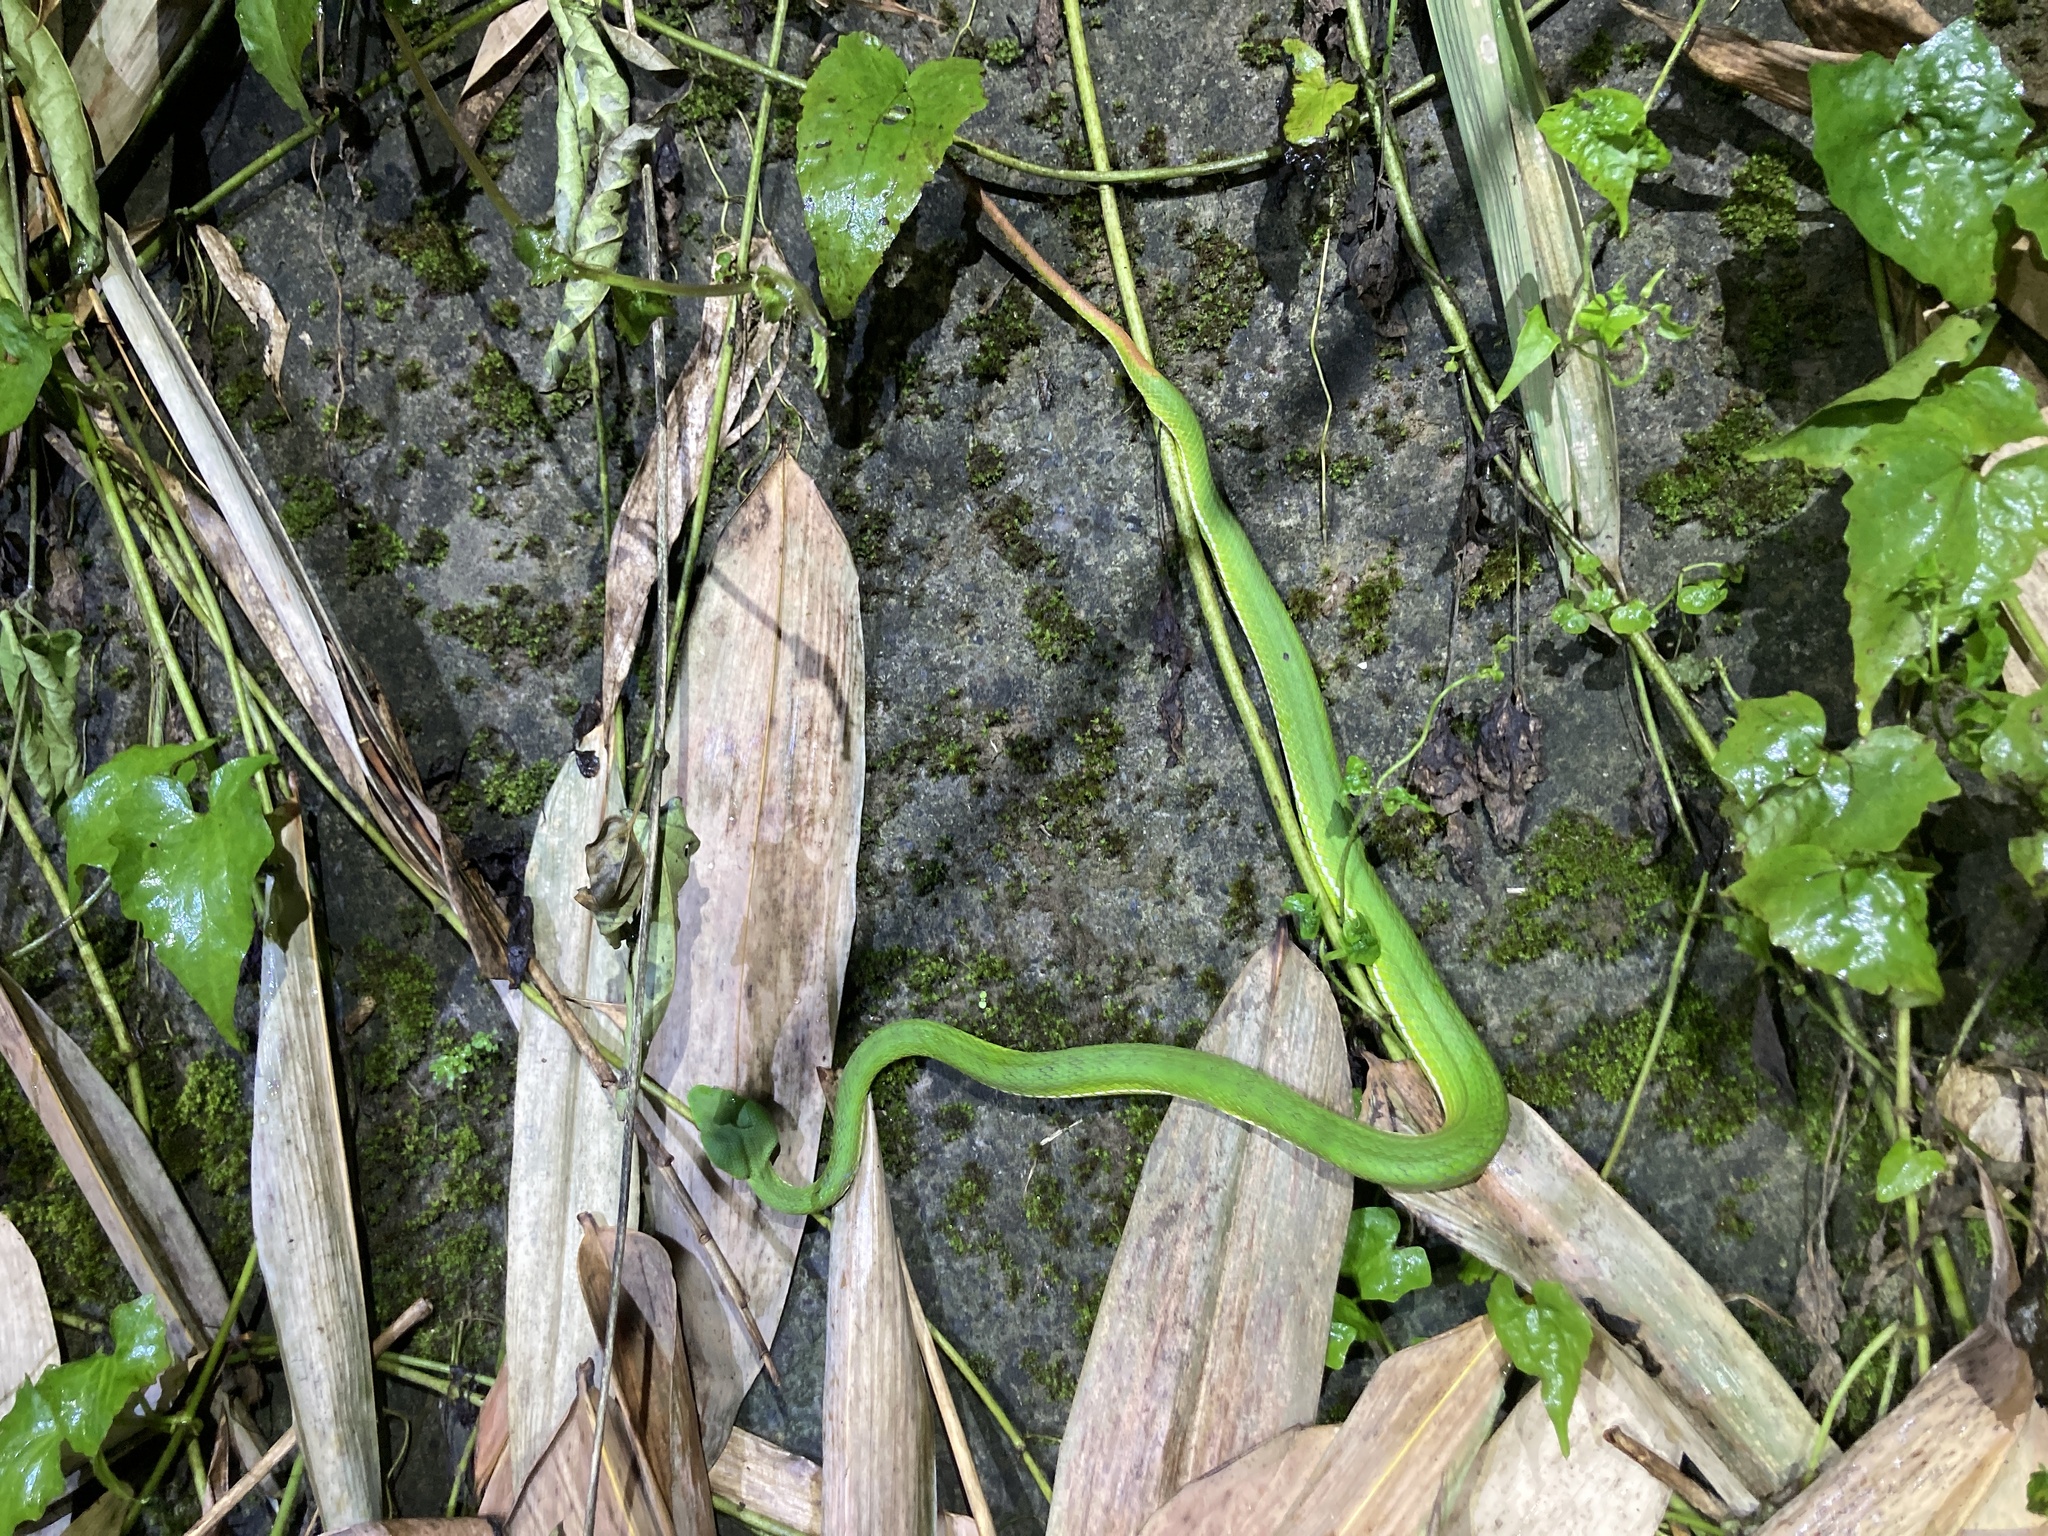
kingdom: Animalia
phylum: Chordata
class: Squamata
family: Viperidae
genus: Trimeresurus
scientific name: Trimeresurus stejnegeri
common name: Chen’s bamboo pit viper
